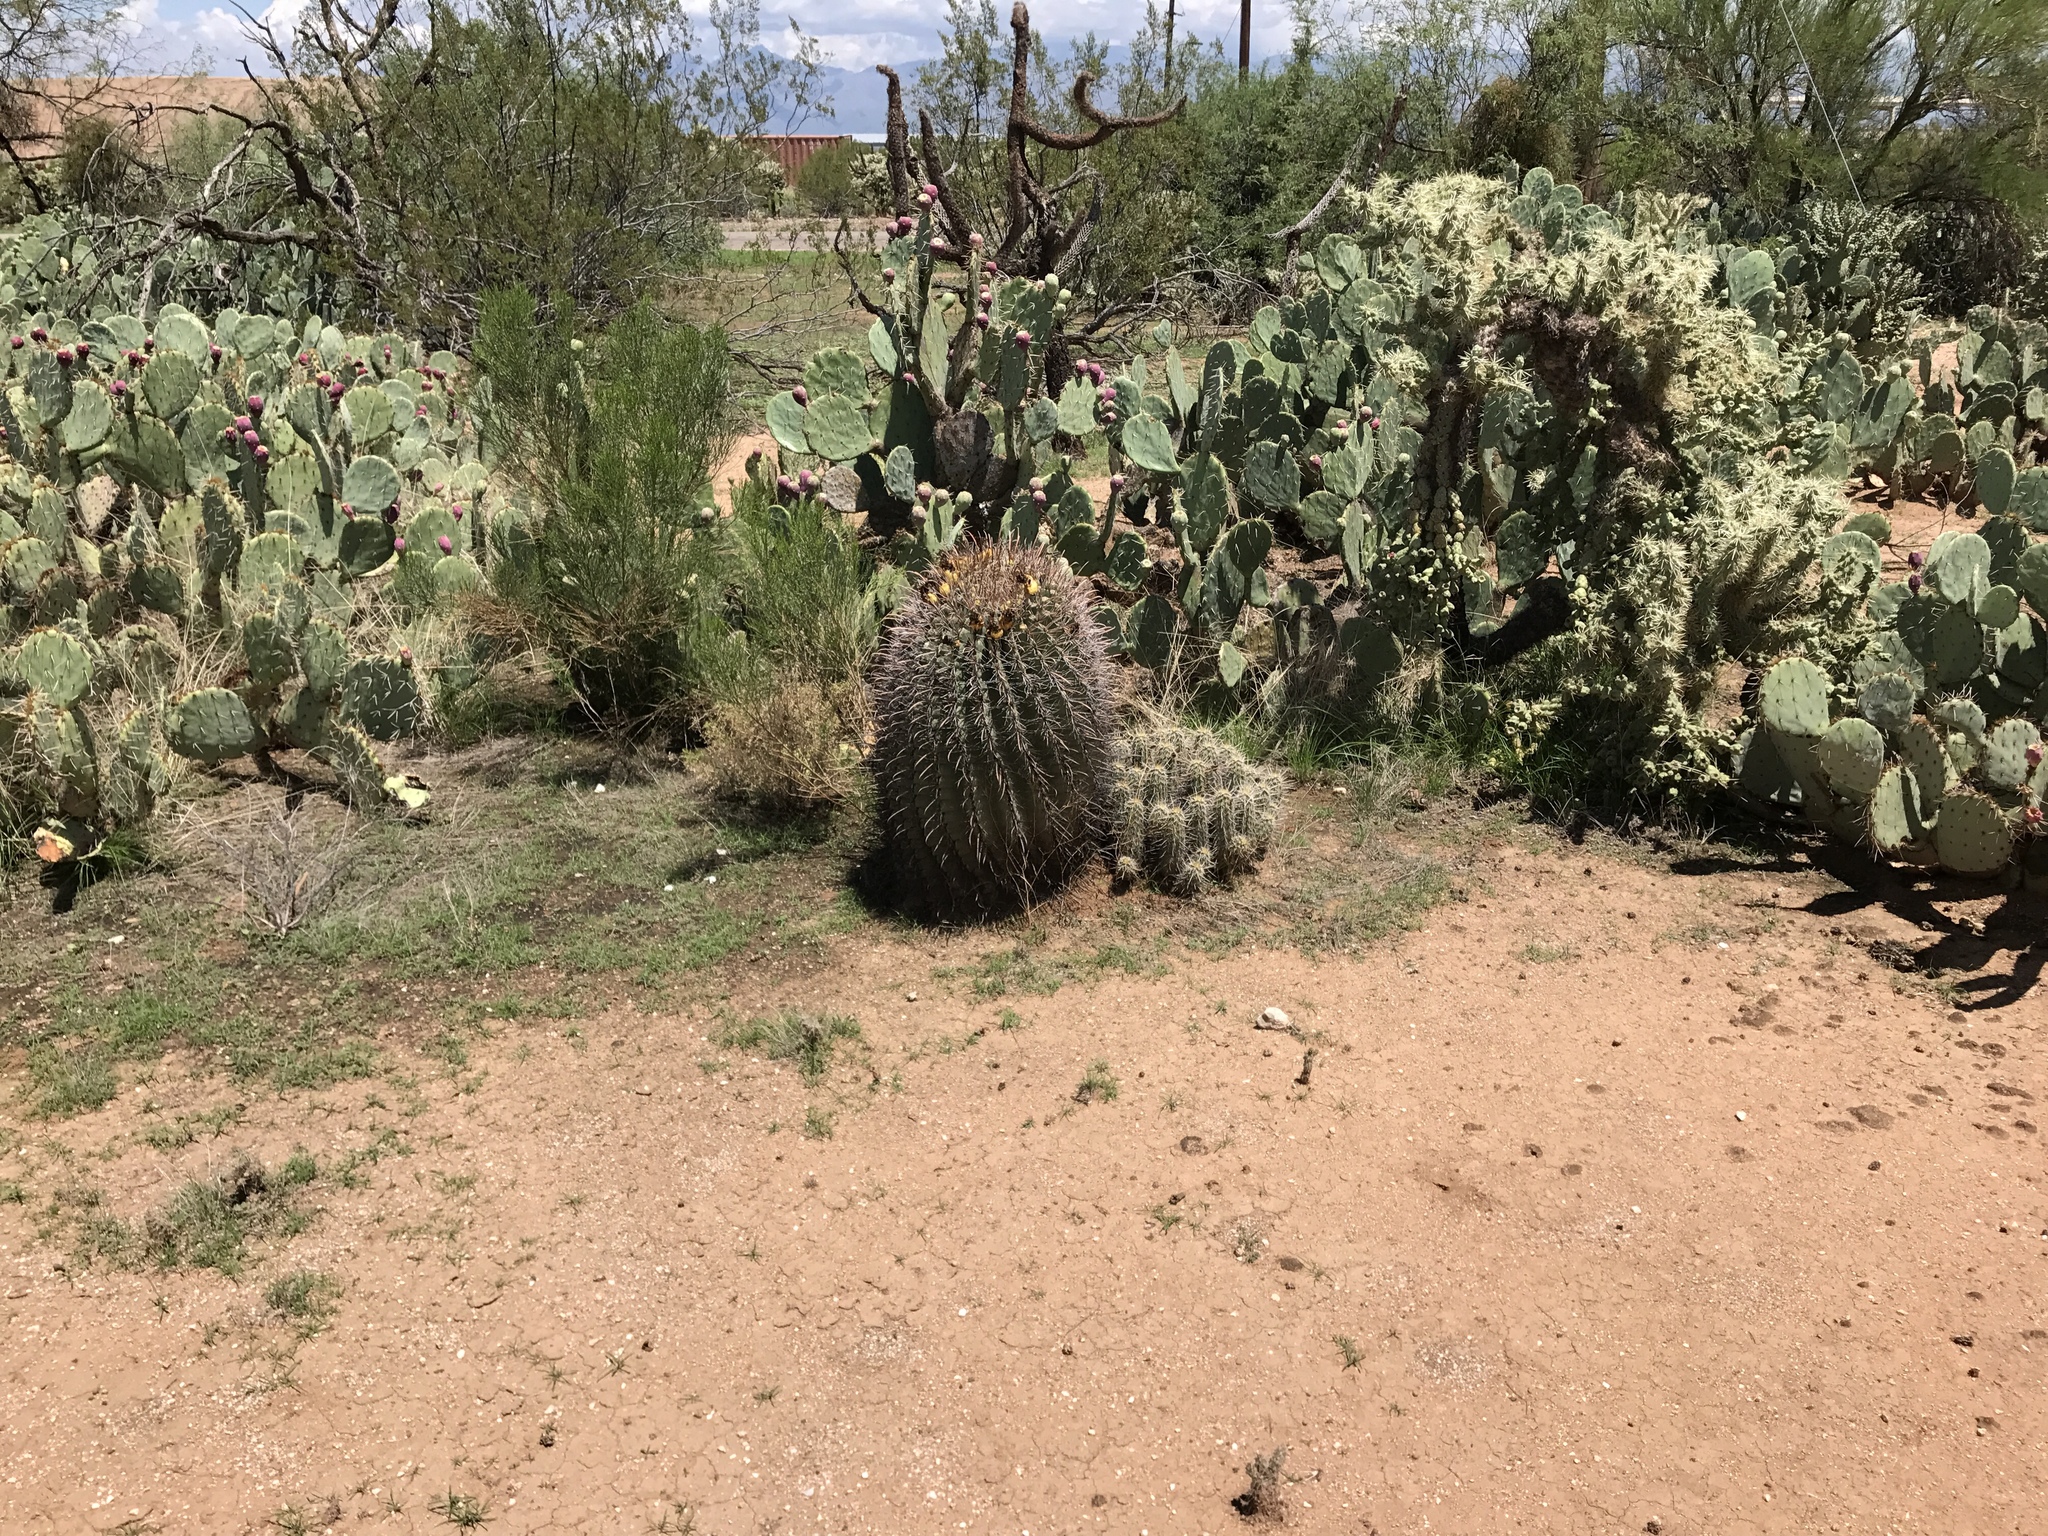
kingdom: Plantae
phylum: Tracheophyta
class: Magnoliopsida
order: Caryophyllales
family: Cactaceae
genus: Ferocactus
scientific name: Ferocactus wislizeni
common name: Candy barrel cactus
